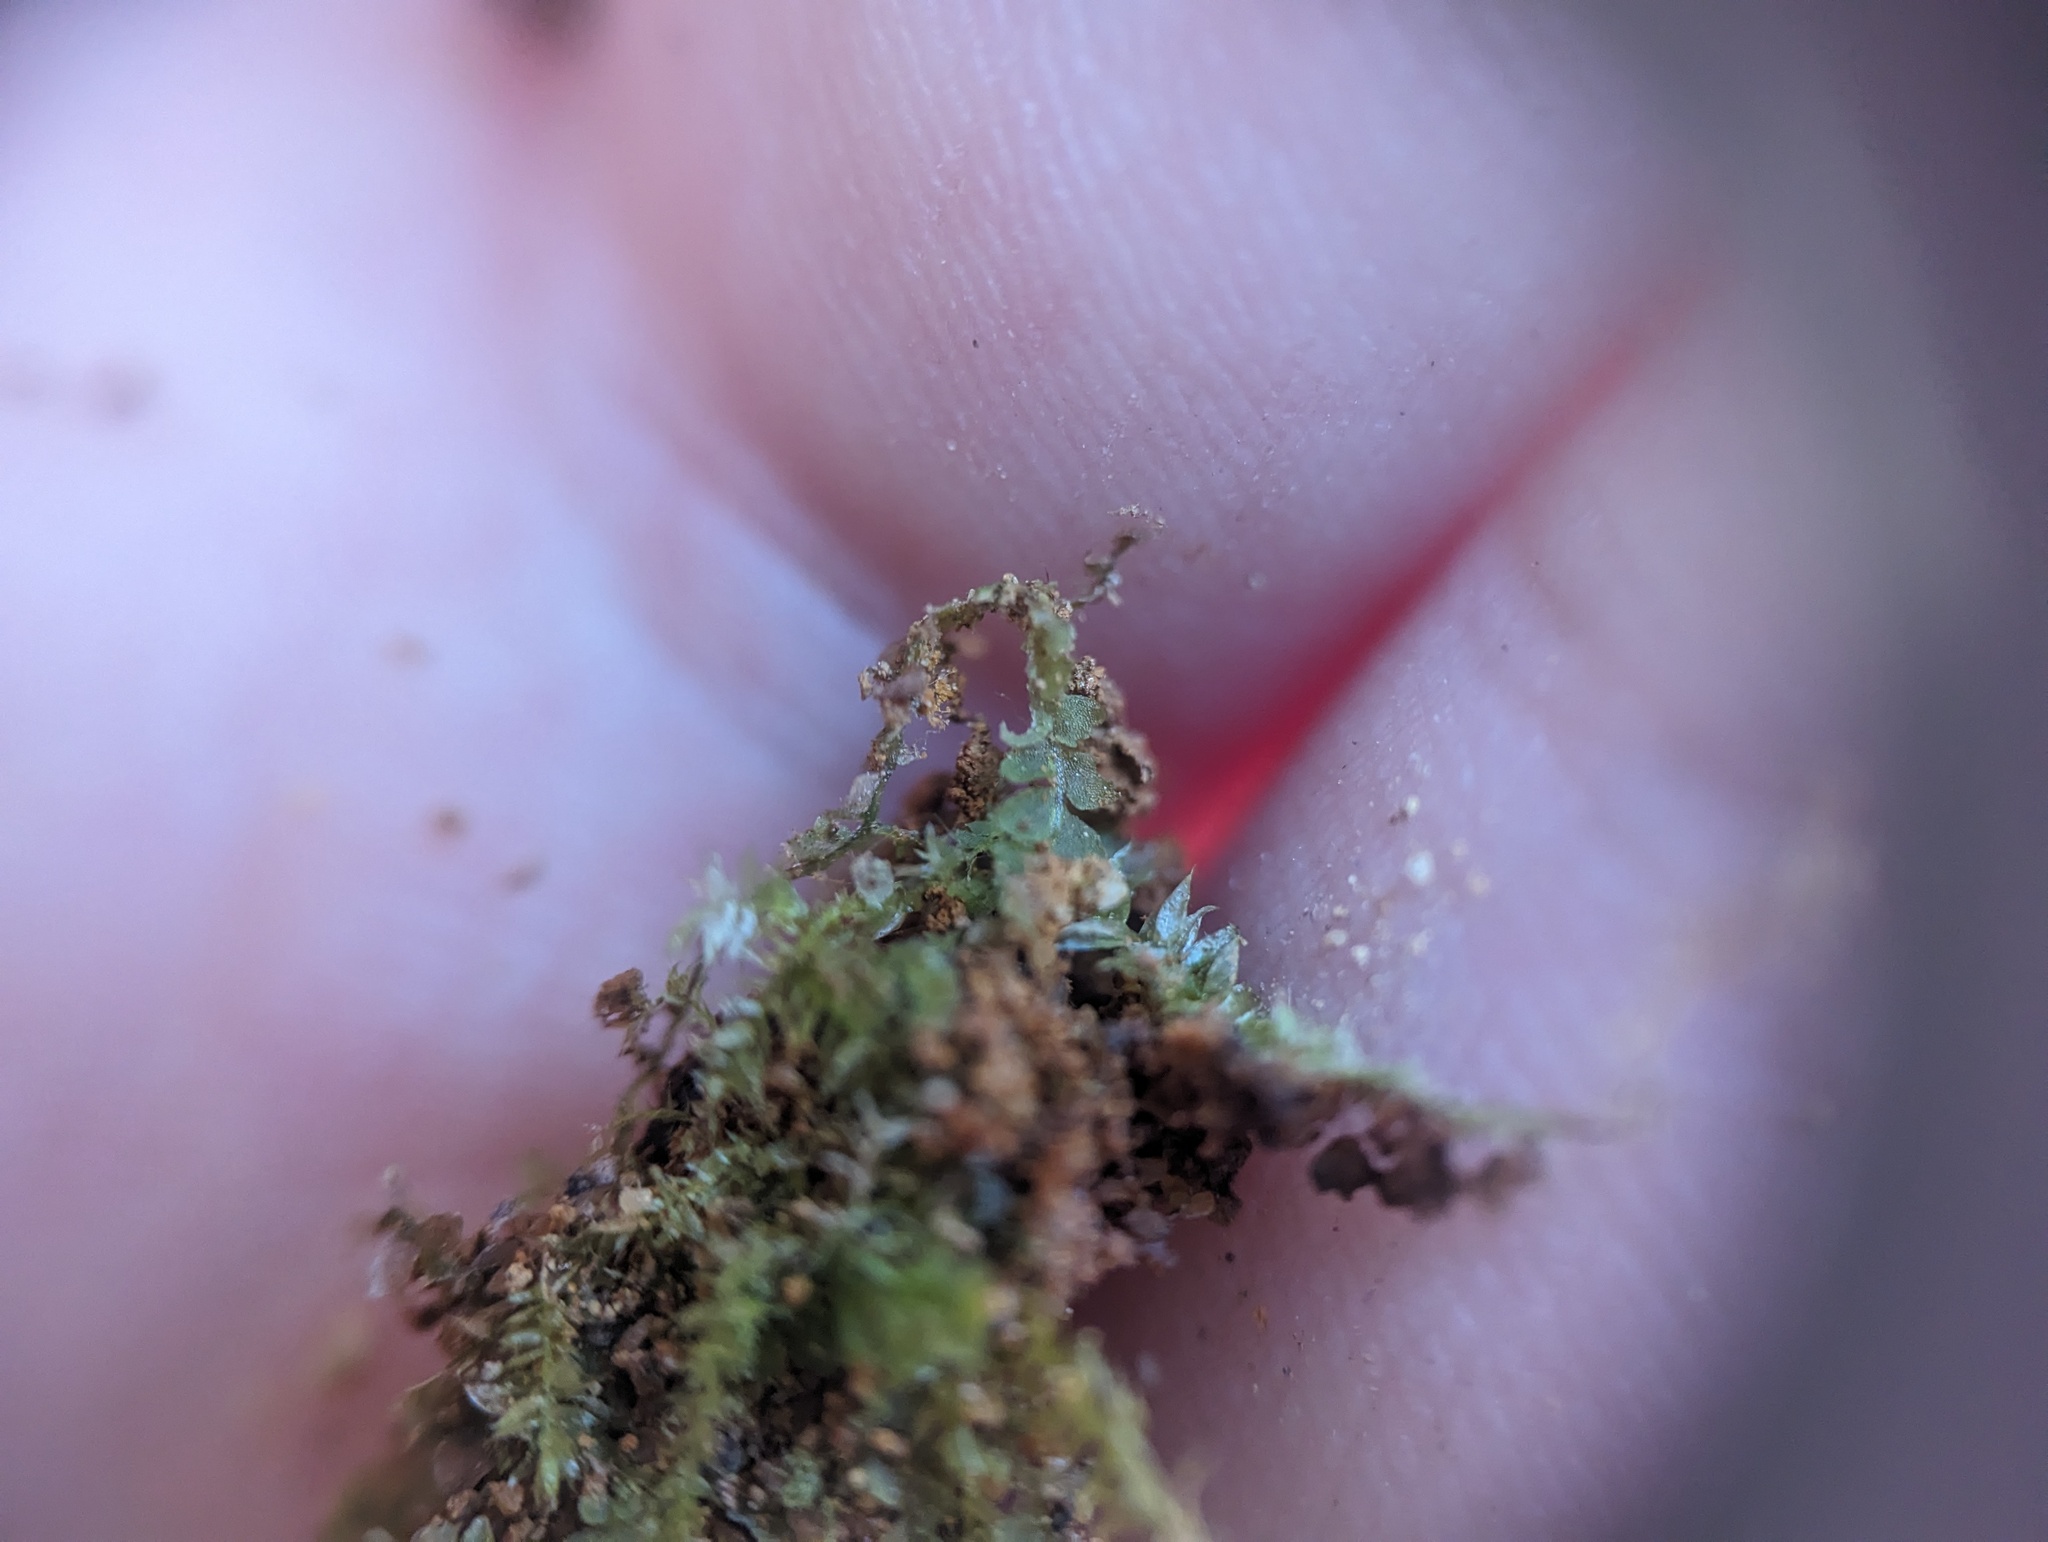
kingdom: Plantae
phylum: Marchantiophyta
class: Jungermanniopsida
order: Jungermanniales
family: Calypogeiaceae
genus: Calypogeia
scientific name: Calypogeia neogaea
